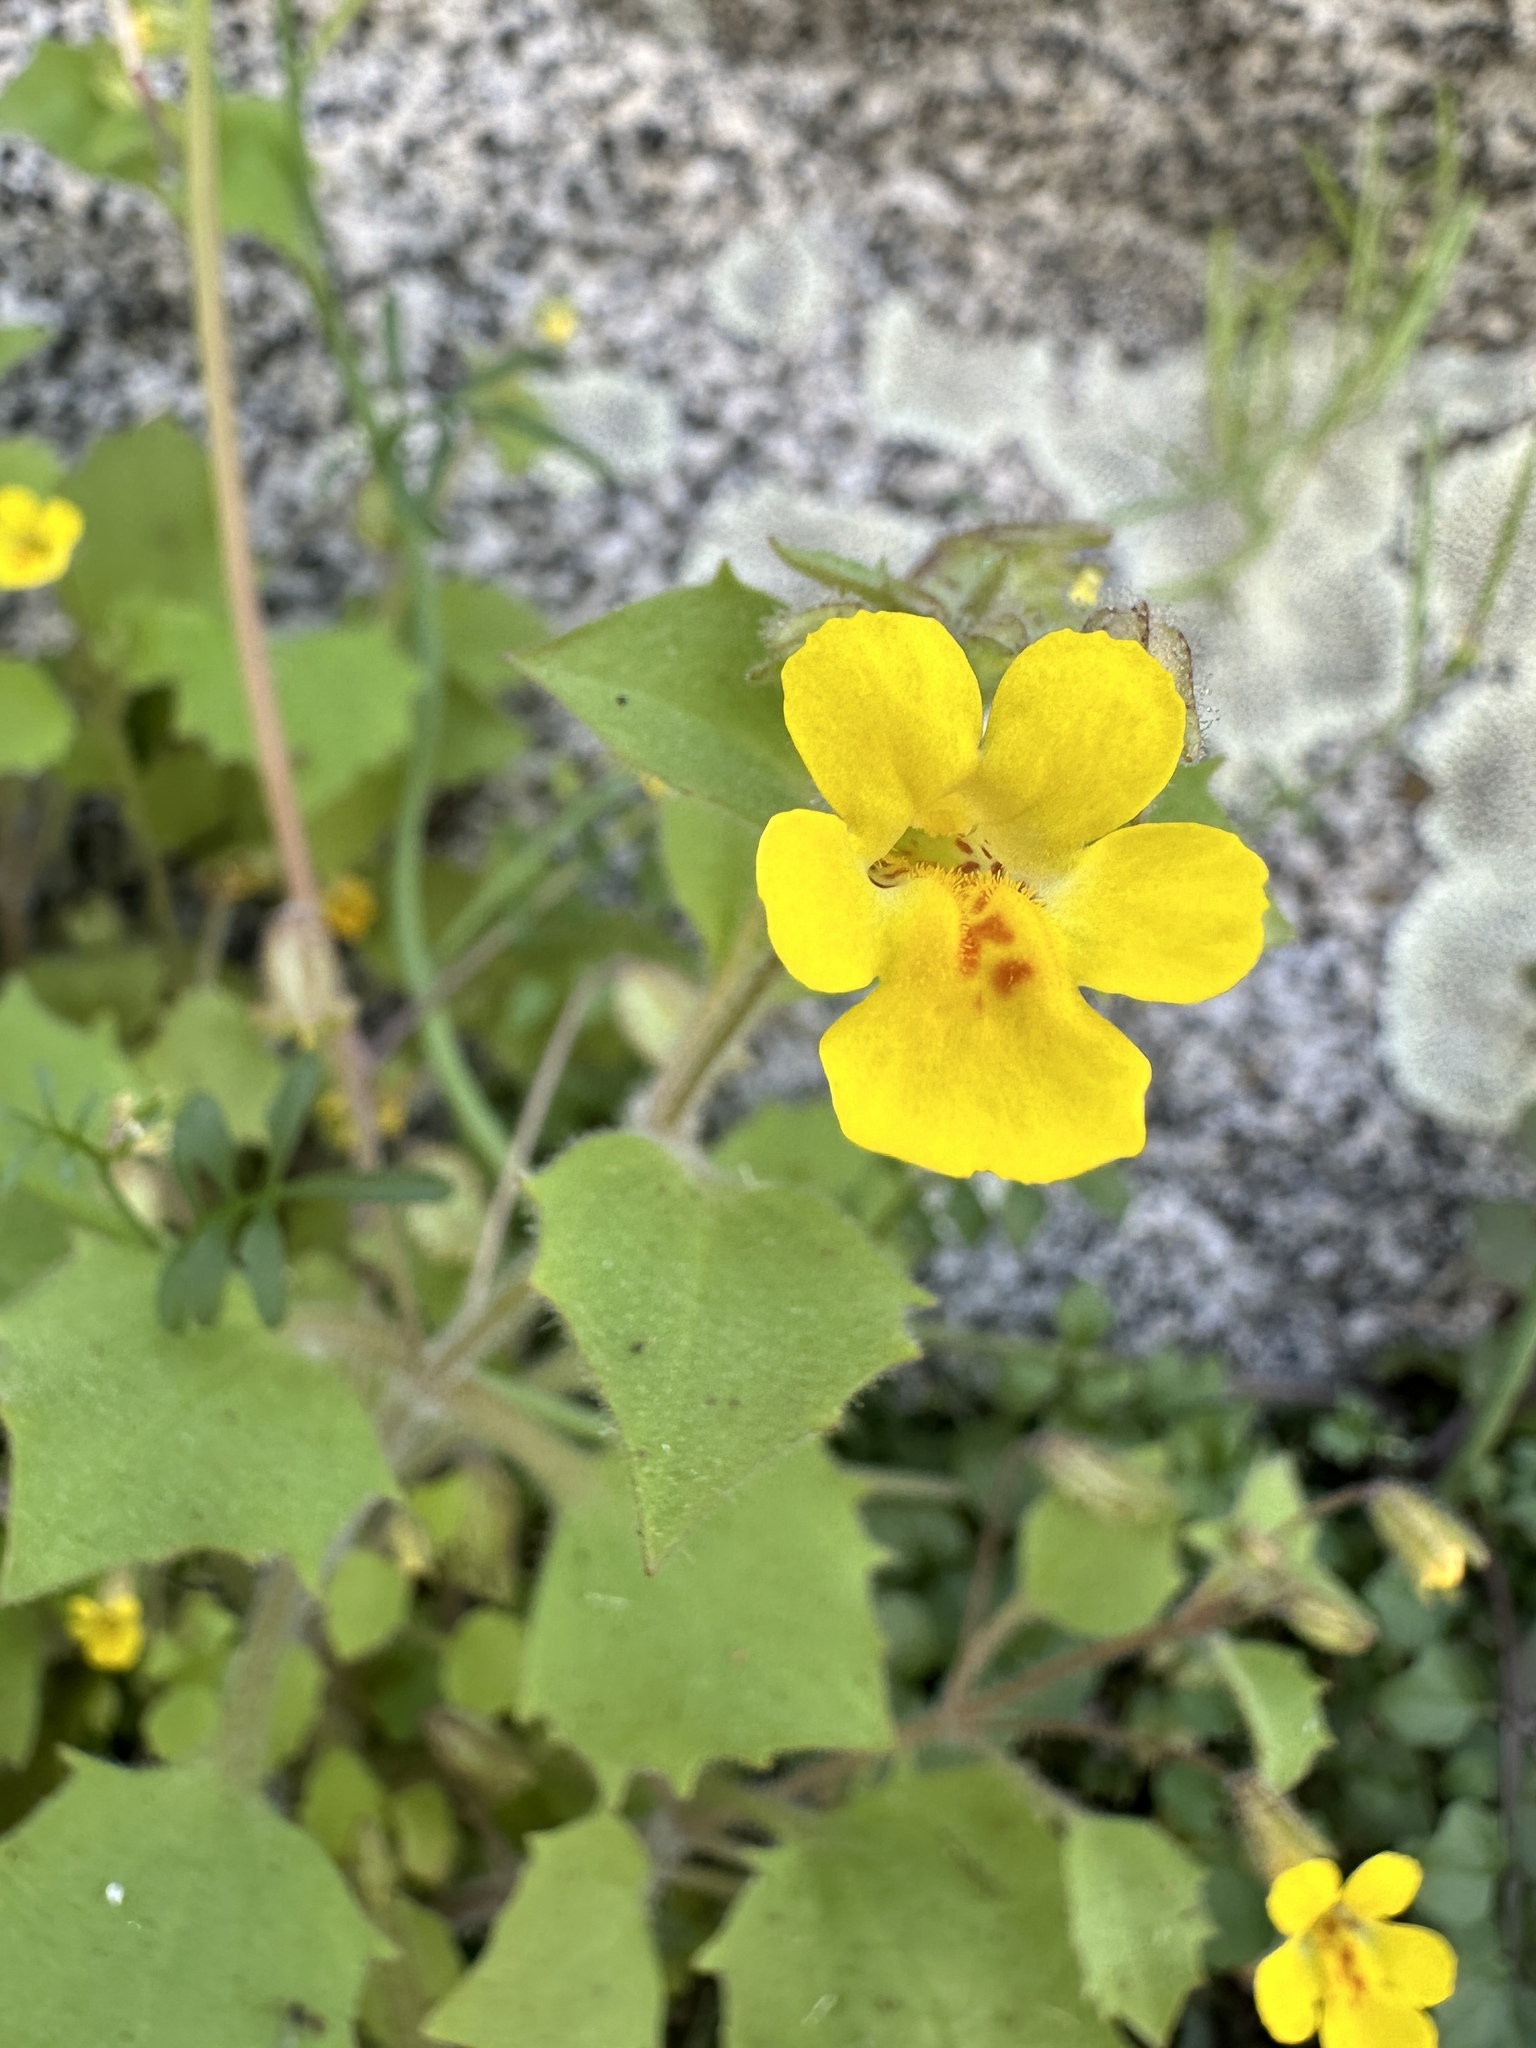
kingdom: Plantae
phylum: Tracheophyta
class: Magnoliopsida
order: Lamiales
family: Phrymaceae
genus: Erythranthe
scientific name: Erythranthe marmorata
